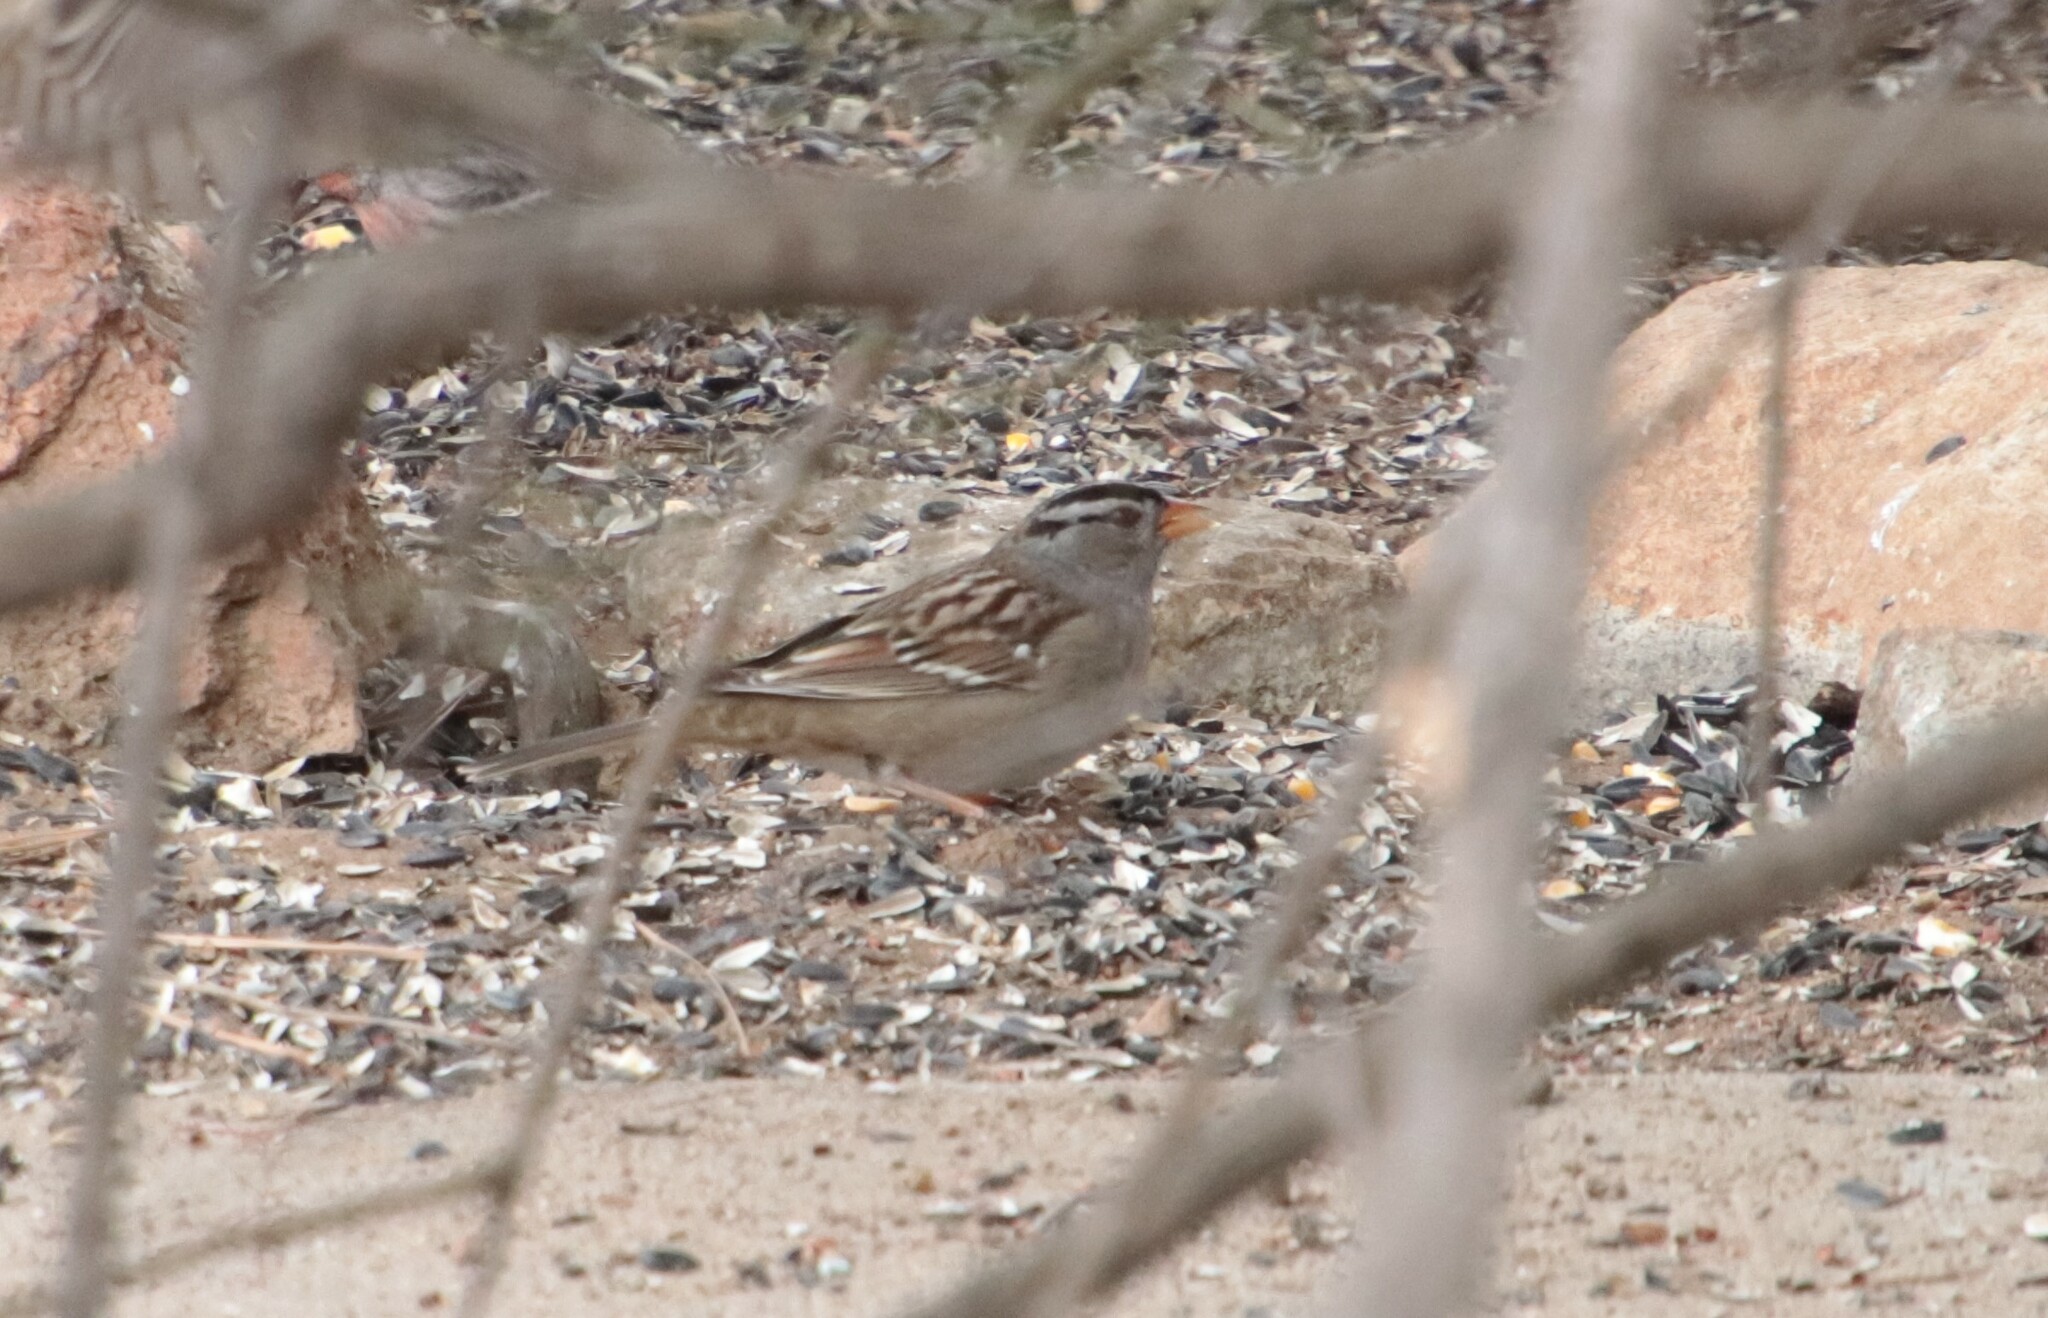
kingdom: Animalia
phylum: Chordata
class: Aves
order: Passeriformes
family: Passerellidae
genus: Zonotrichia
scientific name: Zonotrichia leucophrys
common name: White-crowned sparrow
